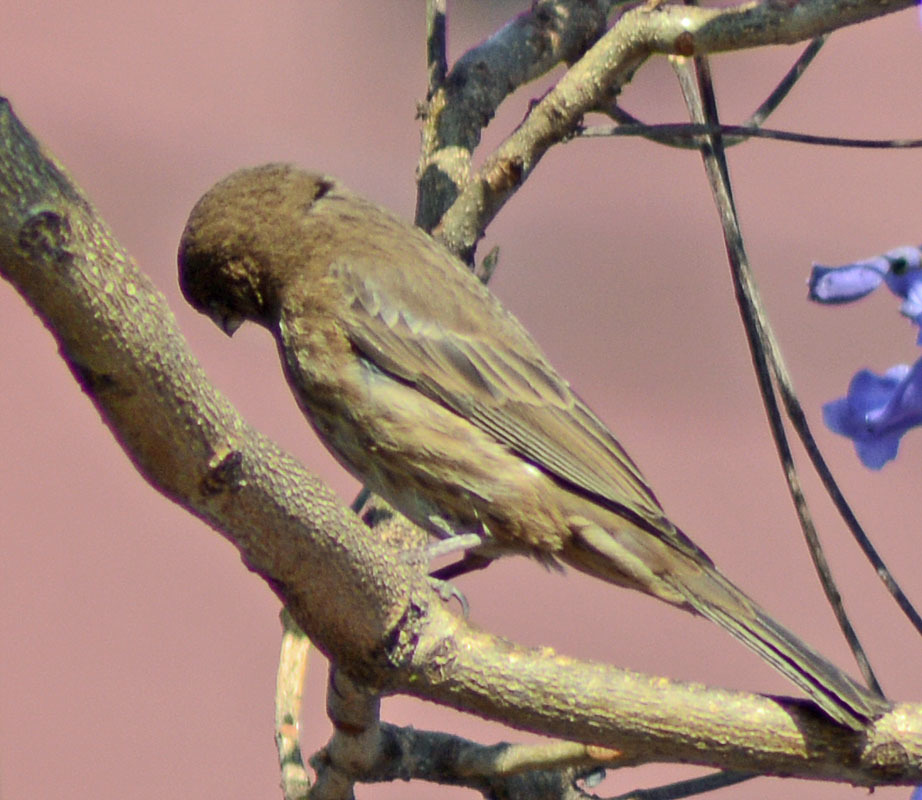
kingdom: Animalia
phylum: Chordata
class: Aves
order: Passeriformes
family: Fringillidae
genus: Haemorhous
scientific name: Haemorhous mexicanus
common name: House finch
